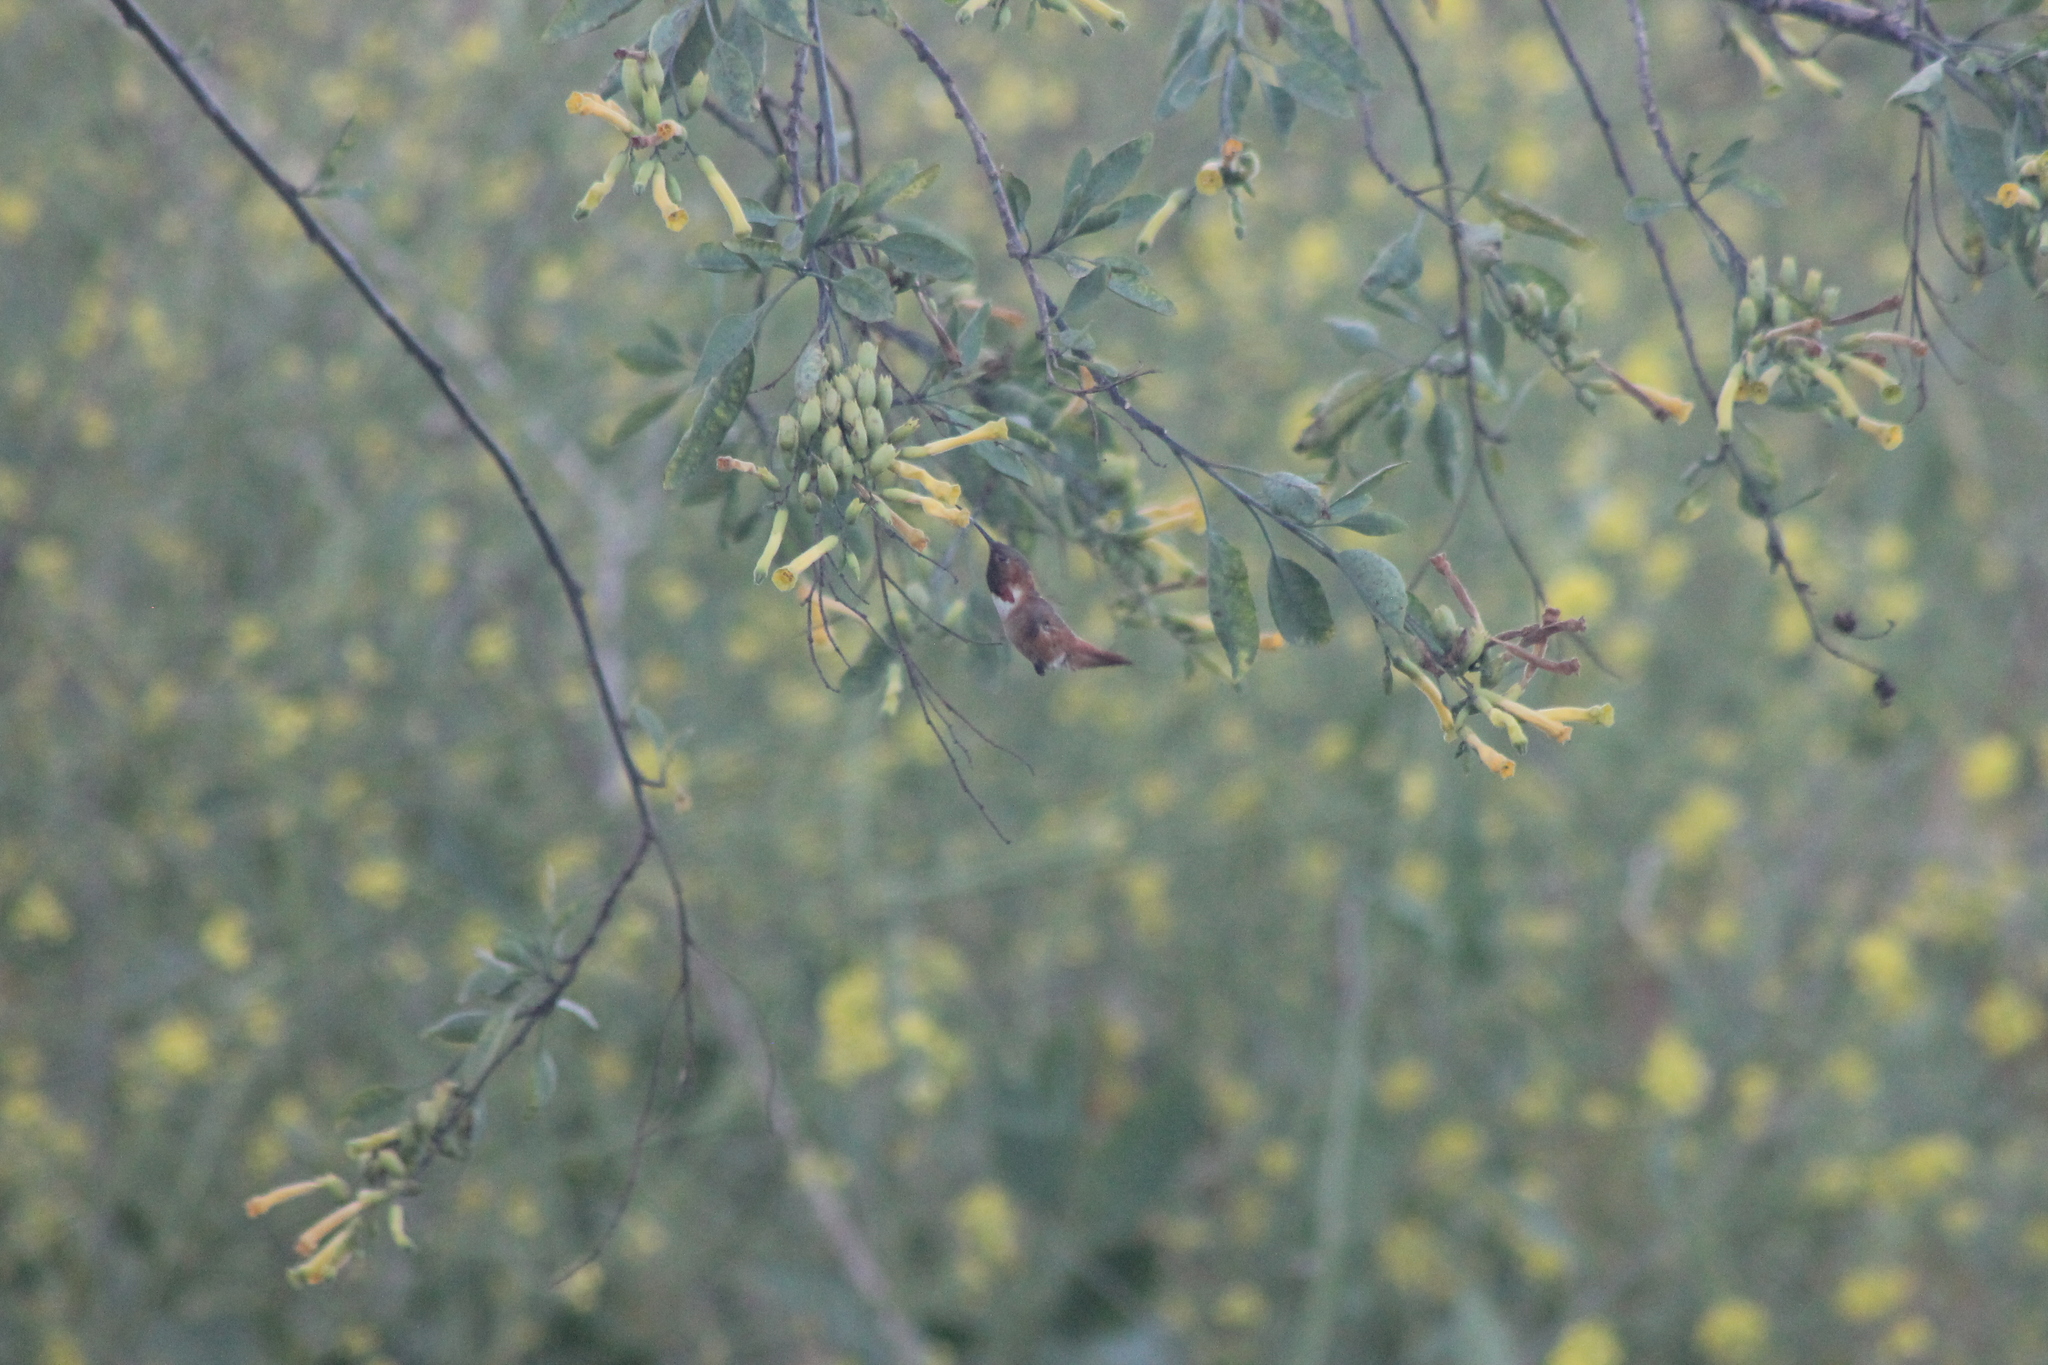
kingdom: Animalia
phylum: Chordata
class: Aves
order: Apodiformes
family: Trochilidae
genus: Selasphorus
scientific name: Selasphorus
